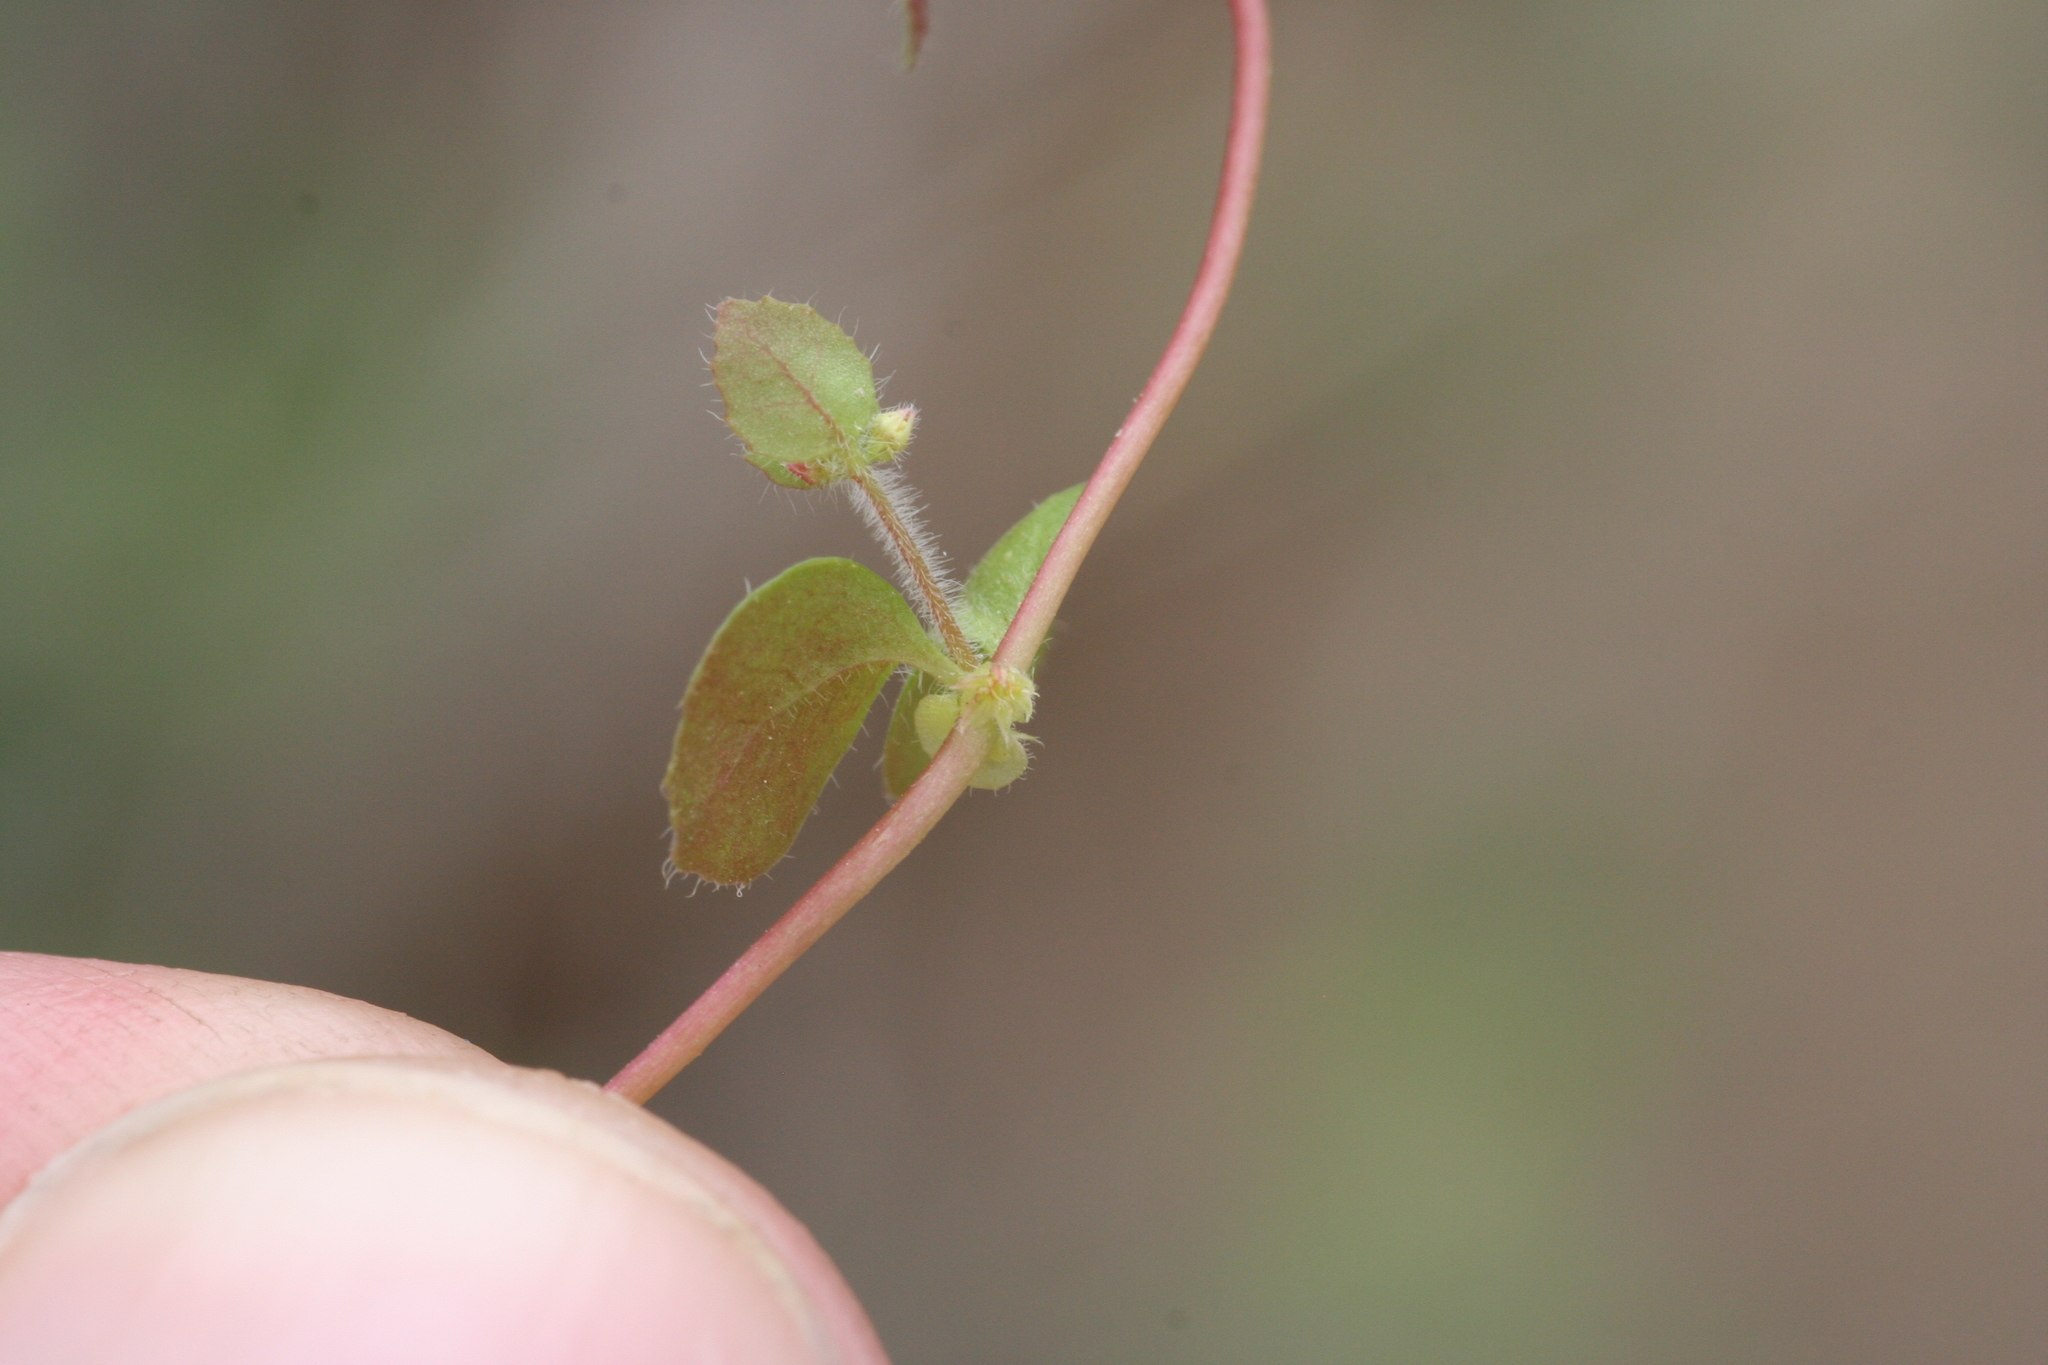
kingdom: Plantae
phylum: Tracheophyta
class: Magnoliopsida
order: Caryophyllales
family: Polygonaceae
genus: Pterostegia
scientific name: Pterostegia drymarioides
